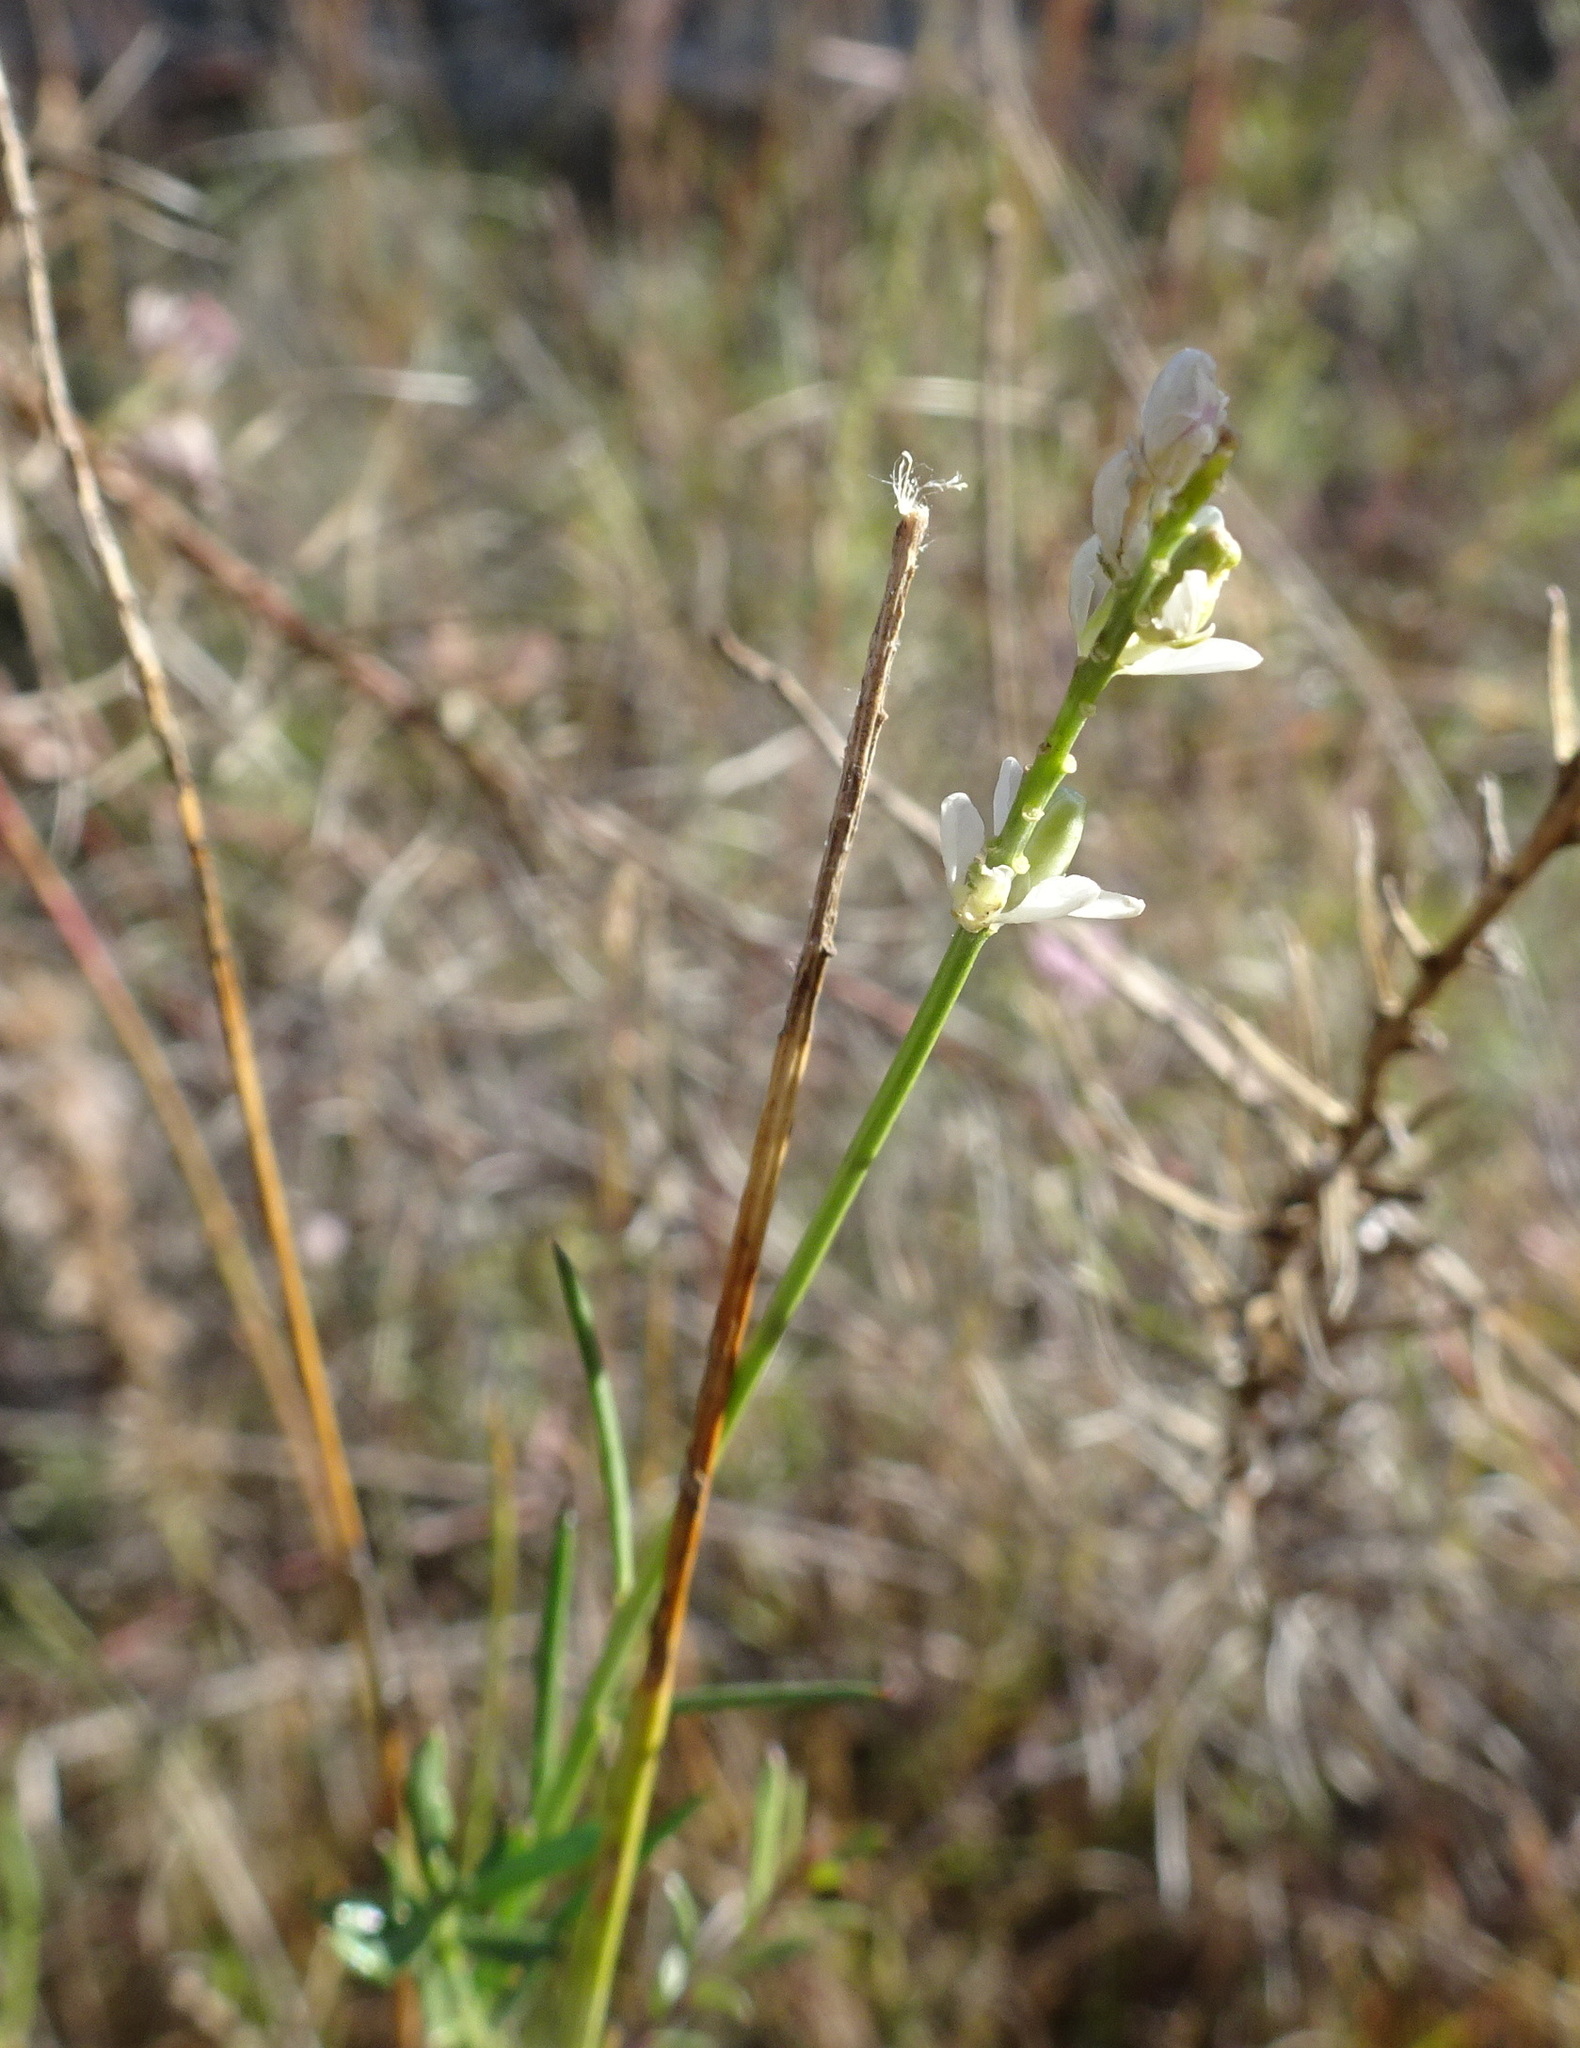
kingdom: Plantae
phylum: Tracheophyta
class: Magnoliopsida
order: Fabales
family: Polygalaceae
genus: Polygala
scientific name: Polygala alba
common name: White milkwort
